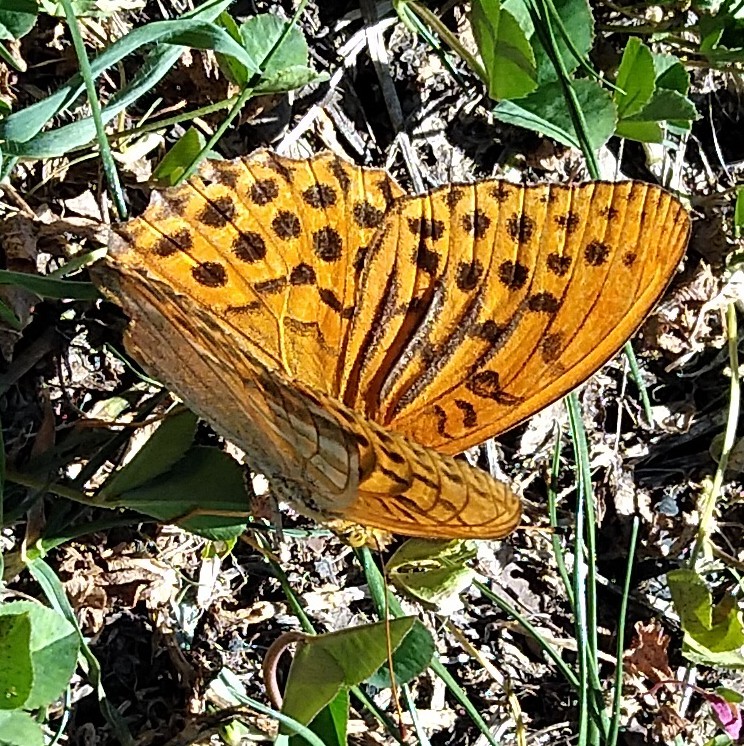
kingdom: Animalia
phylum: Arthropoda
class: Insecta
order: Lepidoptera
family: Nymphalidae
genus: Argynnis
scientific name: Argynnis paphia
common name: Silver-washed fritillary
